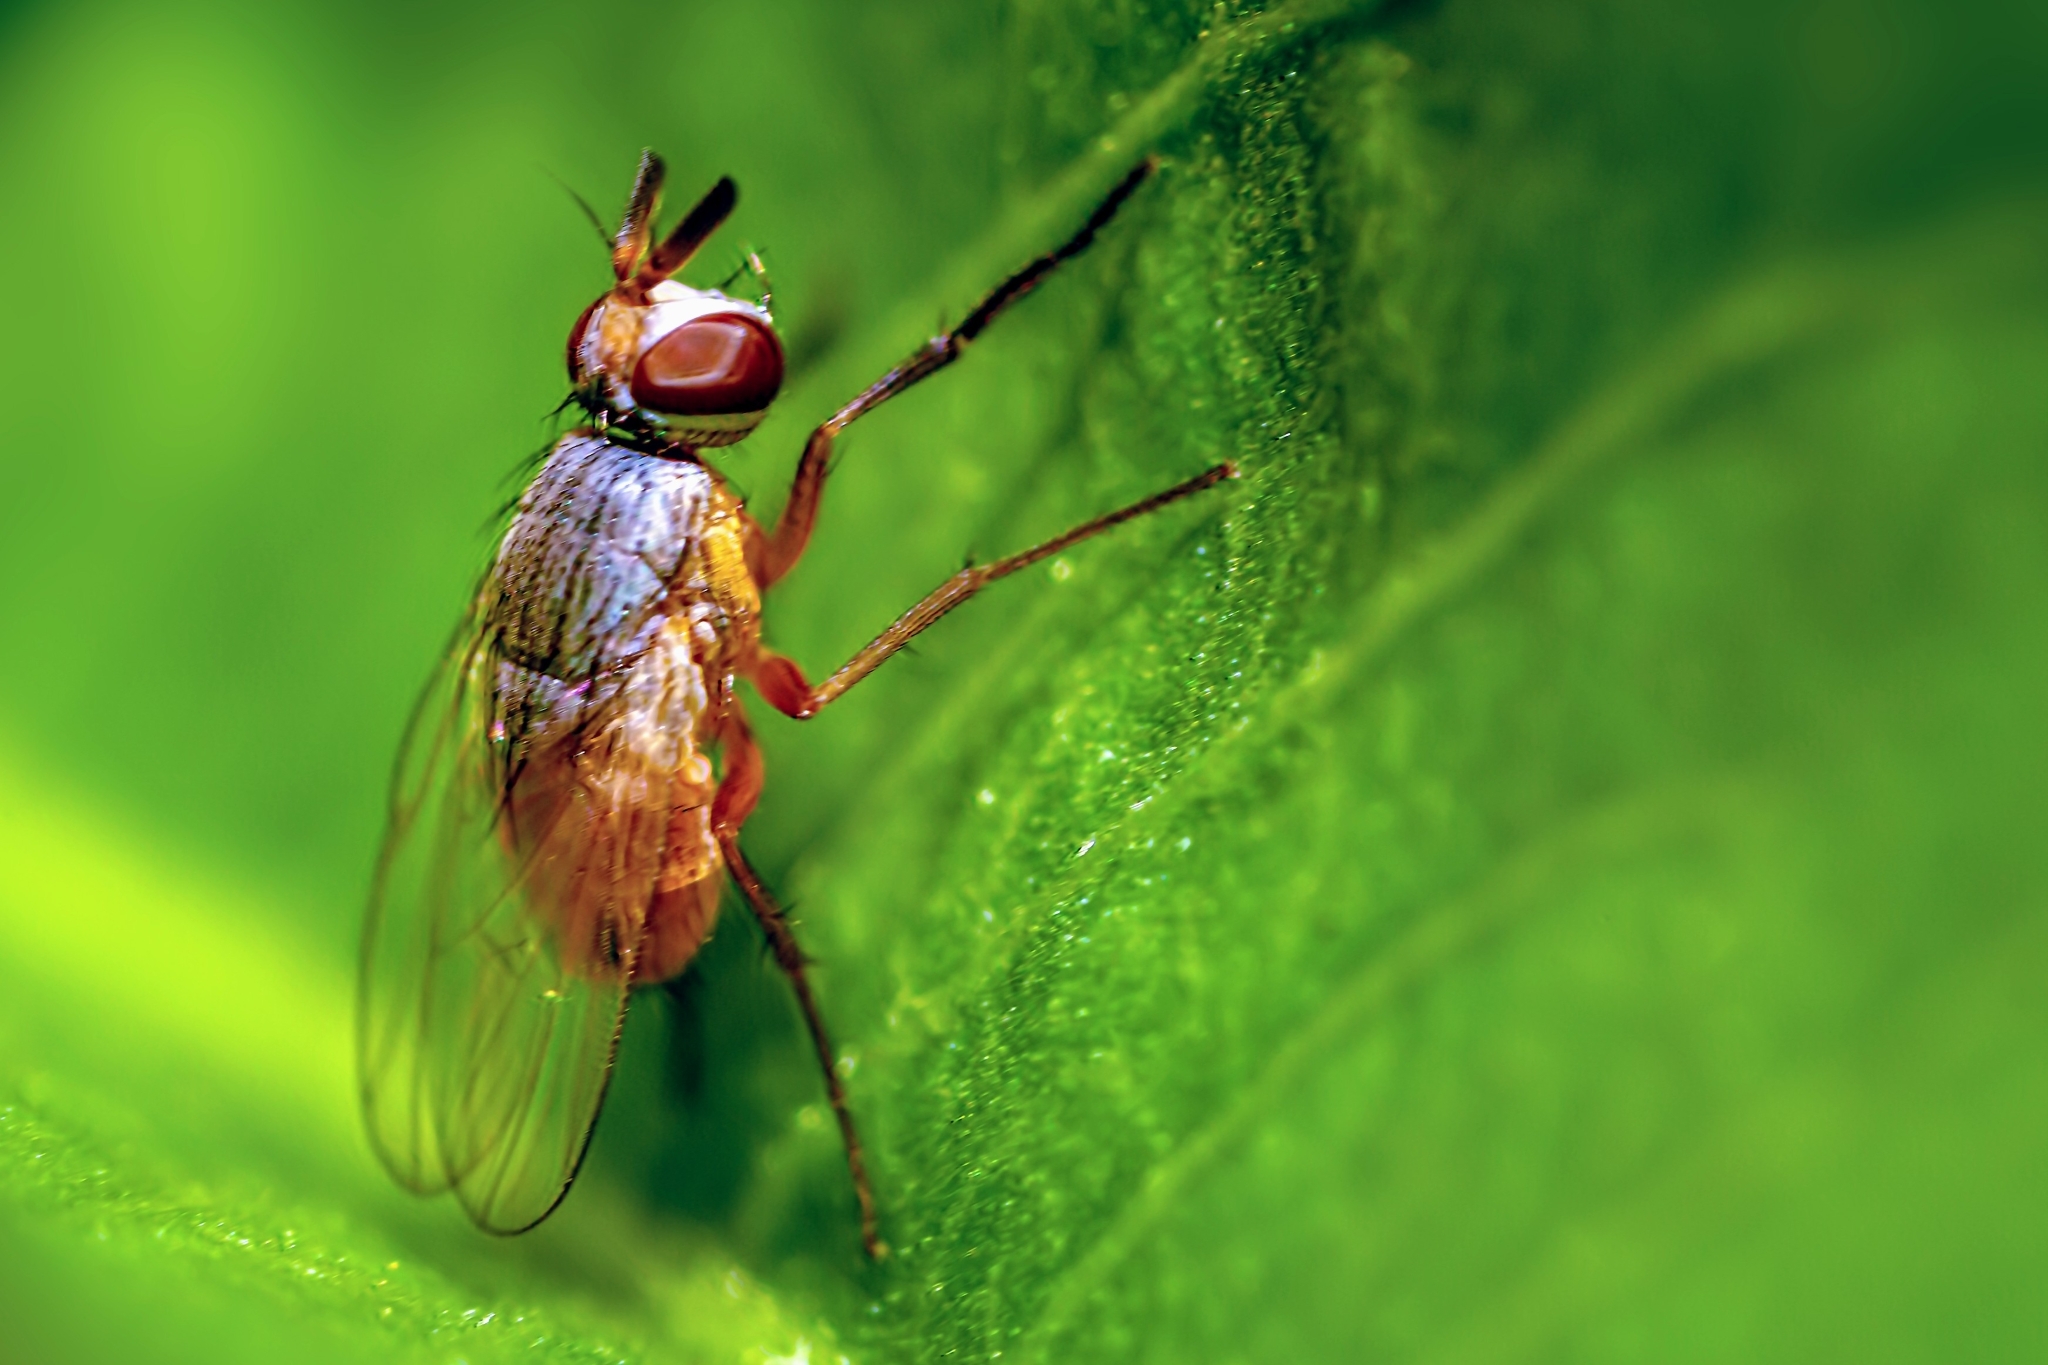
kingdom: Animalia
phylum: Arthropoda
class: Insecta
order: Diptera
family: Muscidae
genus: Atherigona
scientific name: Atherigona reversura
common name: Bermudagrass stem maggot
